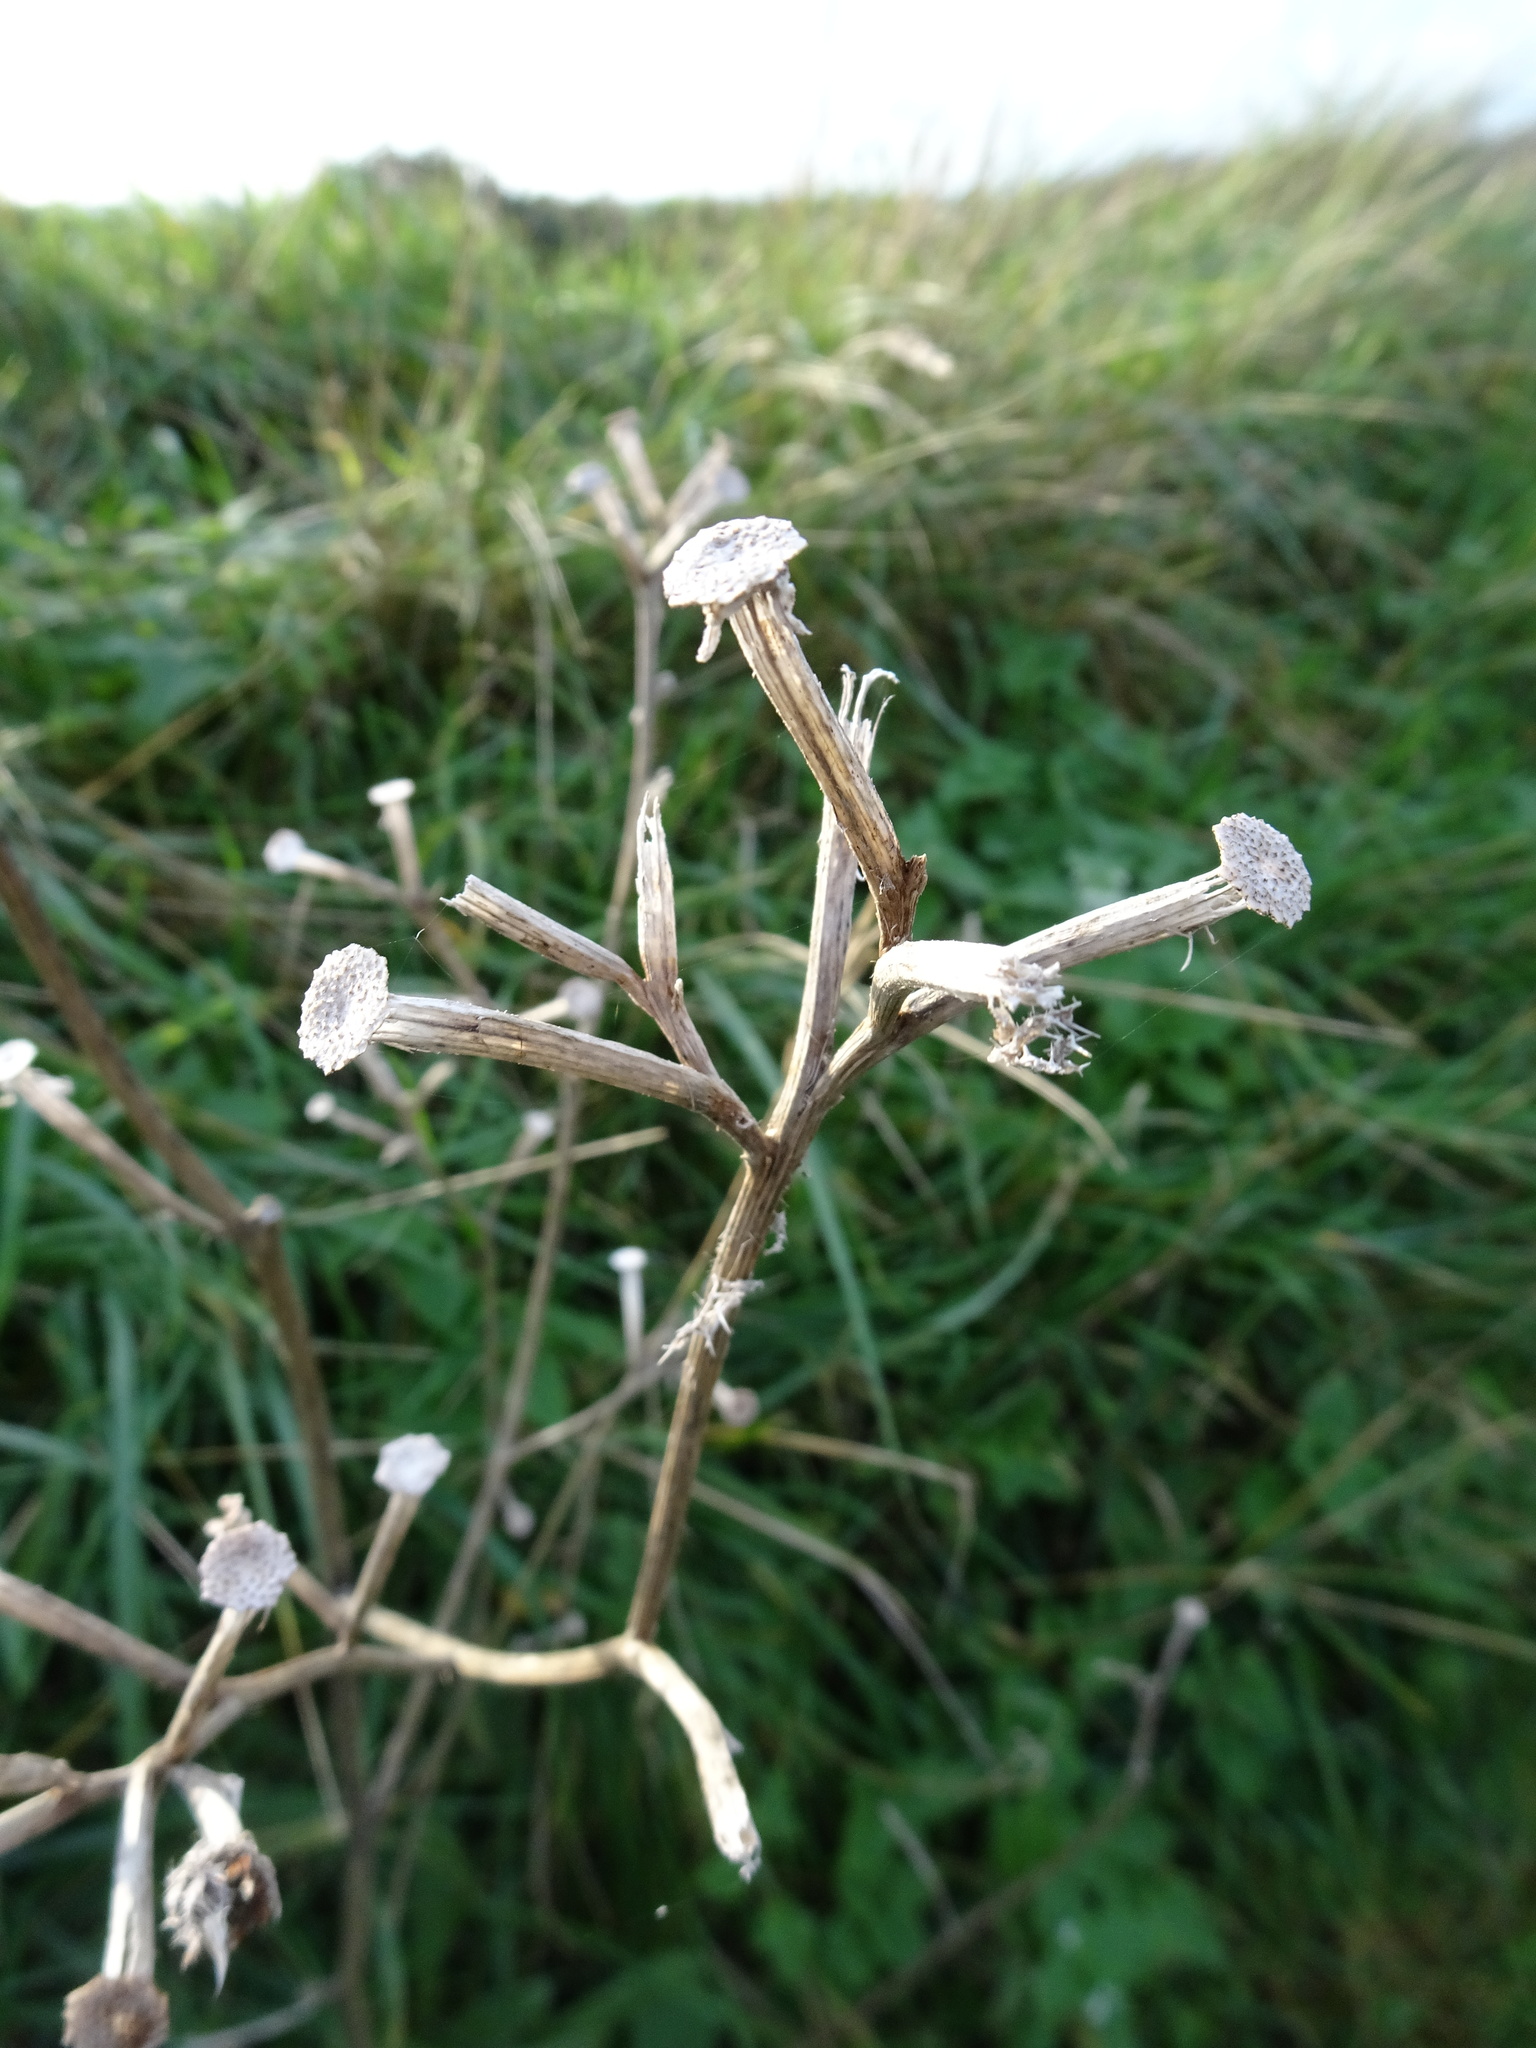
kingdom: Plantae
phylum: Tracheophyta
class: Magnoliopsida
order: Asterales
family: Asteraceae
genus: Helminthotheca
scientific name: Helminthotheca echioides
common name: Ox-tongue
